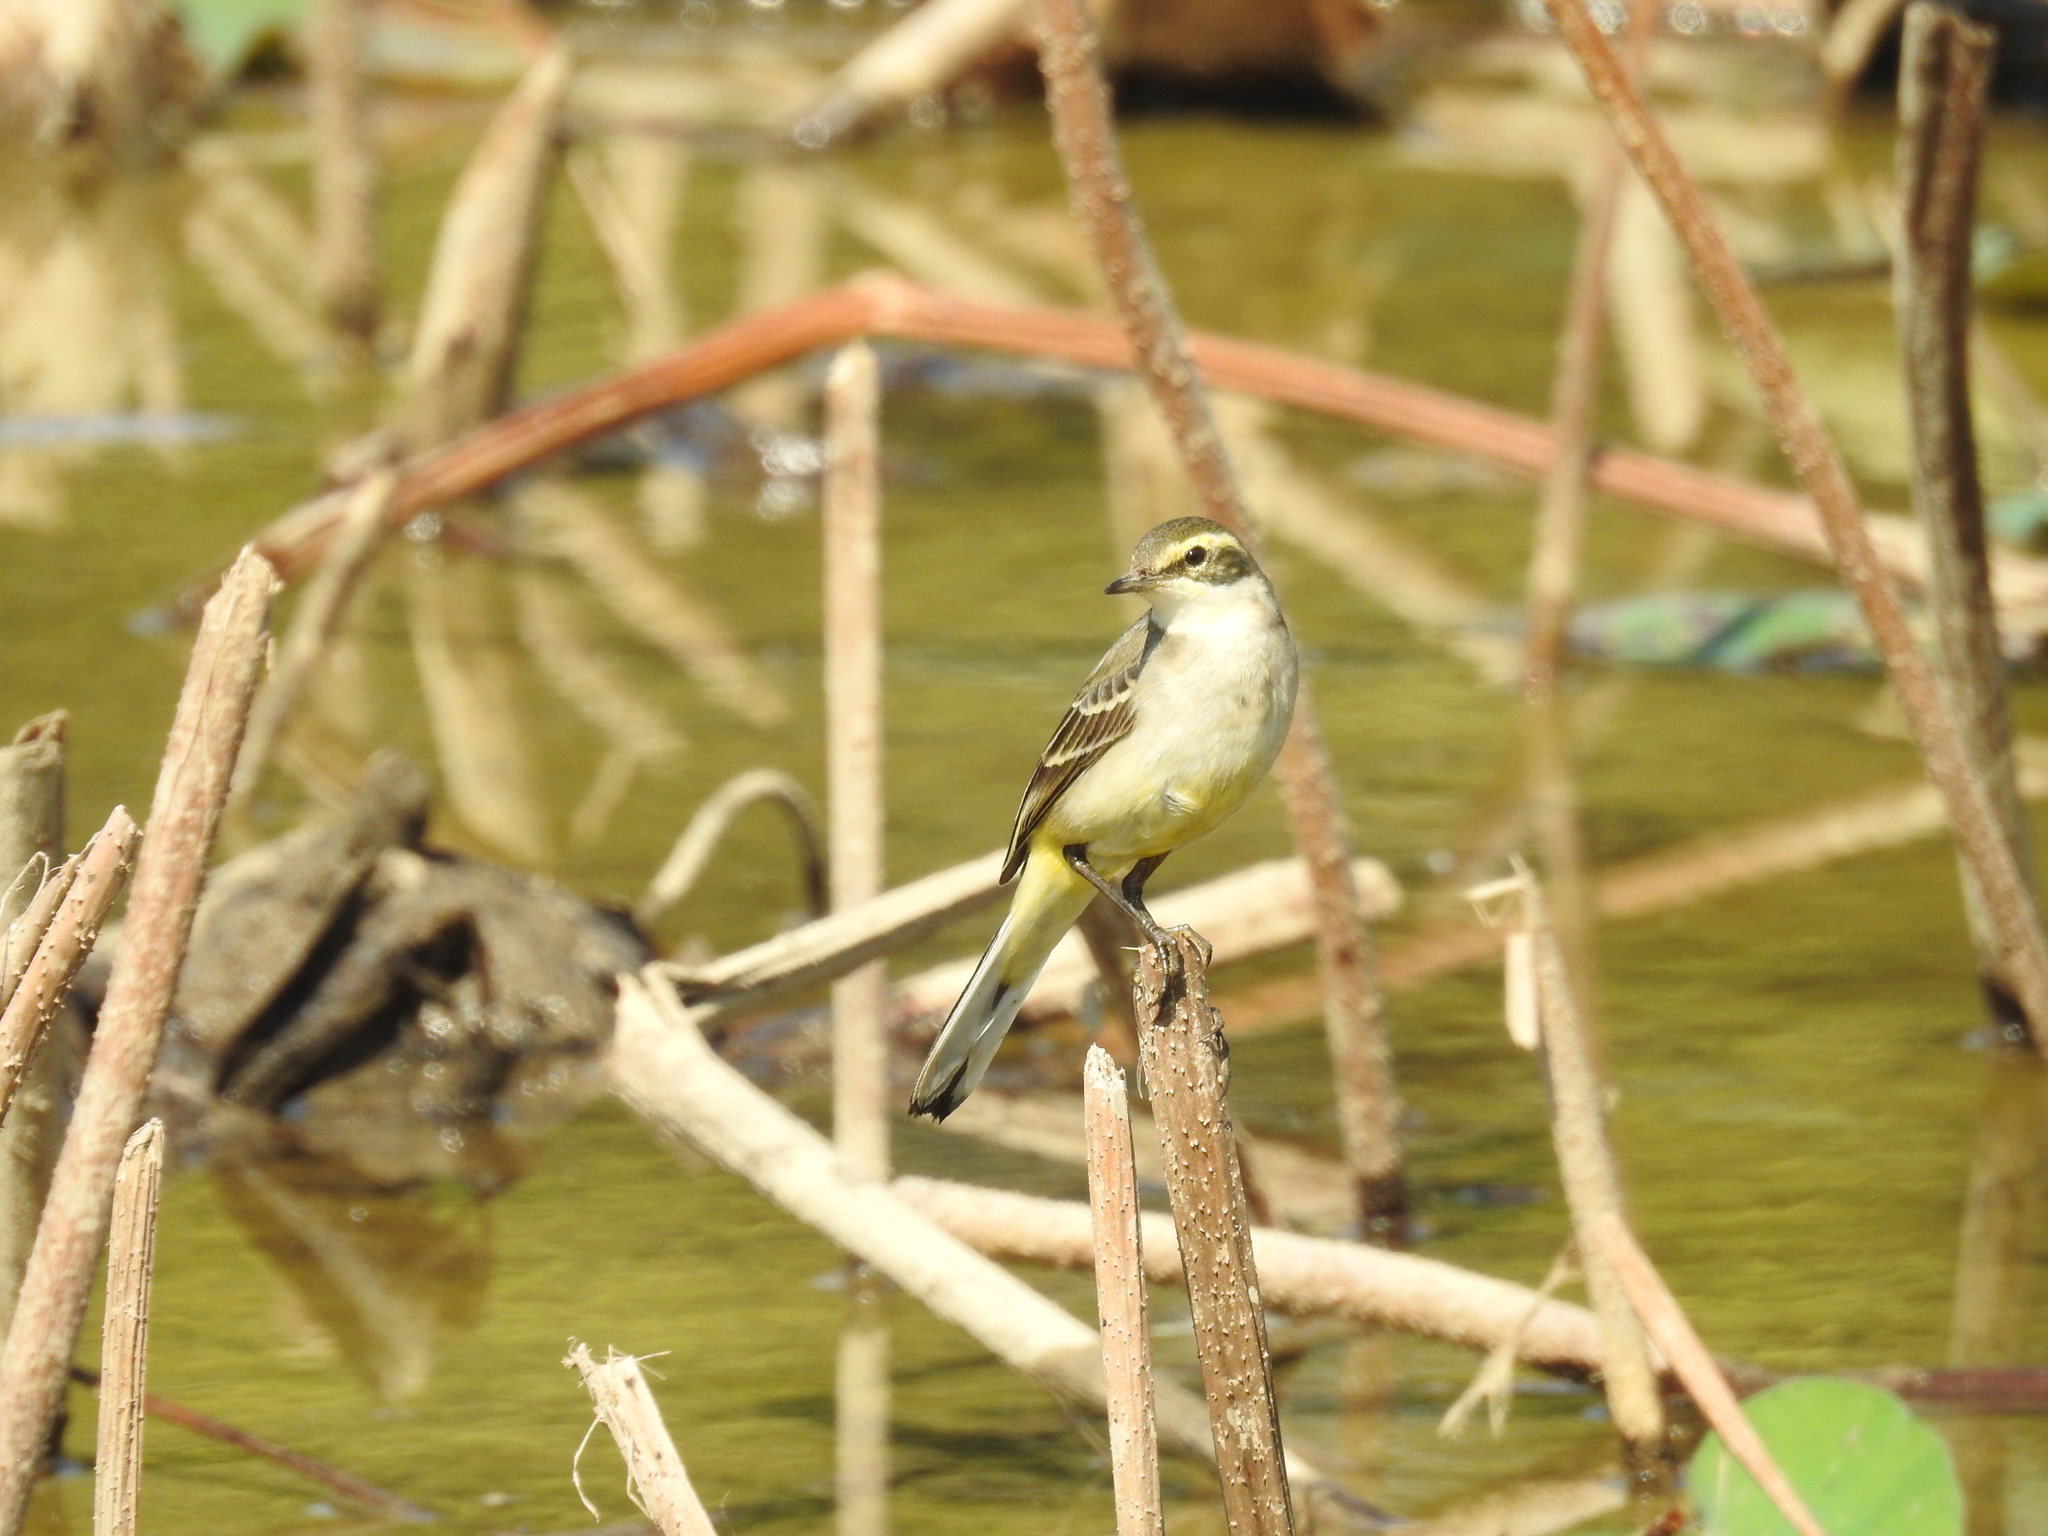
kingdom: Animalia
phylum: Chordata
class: Aves
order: Passeriformes
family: Motacillidae
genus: Motacilla
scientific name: Motacilla tschutschensis
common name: Eastern yellow wagtail
